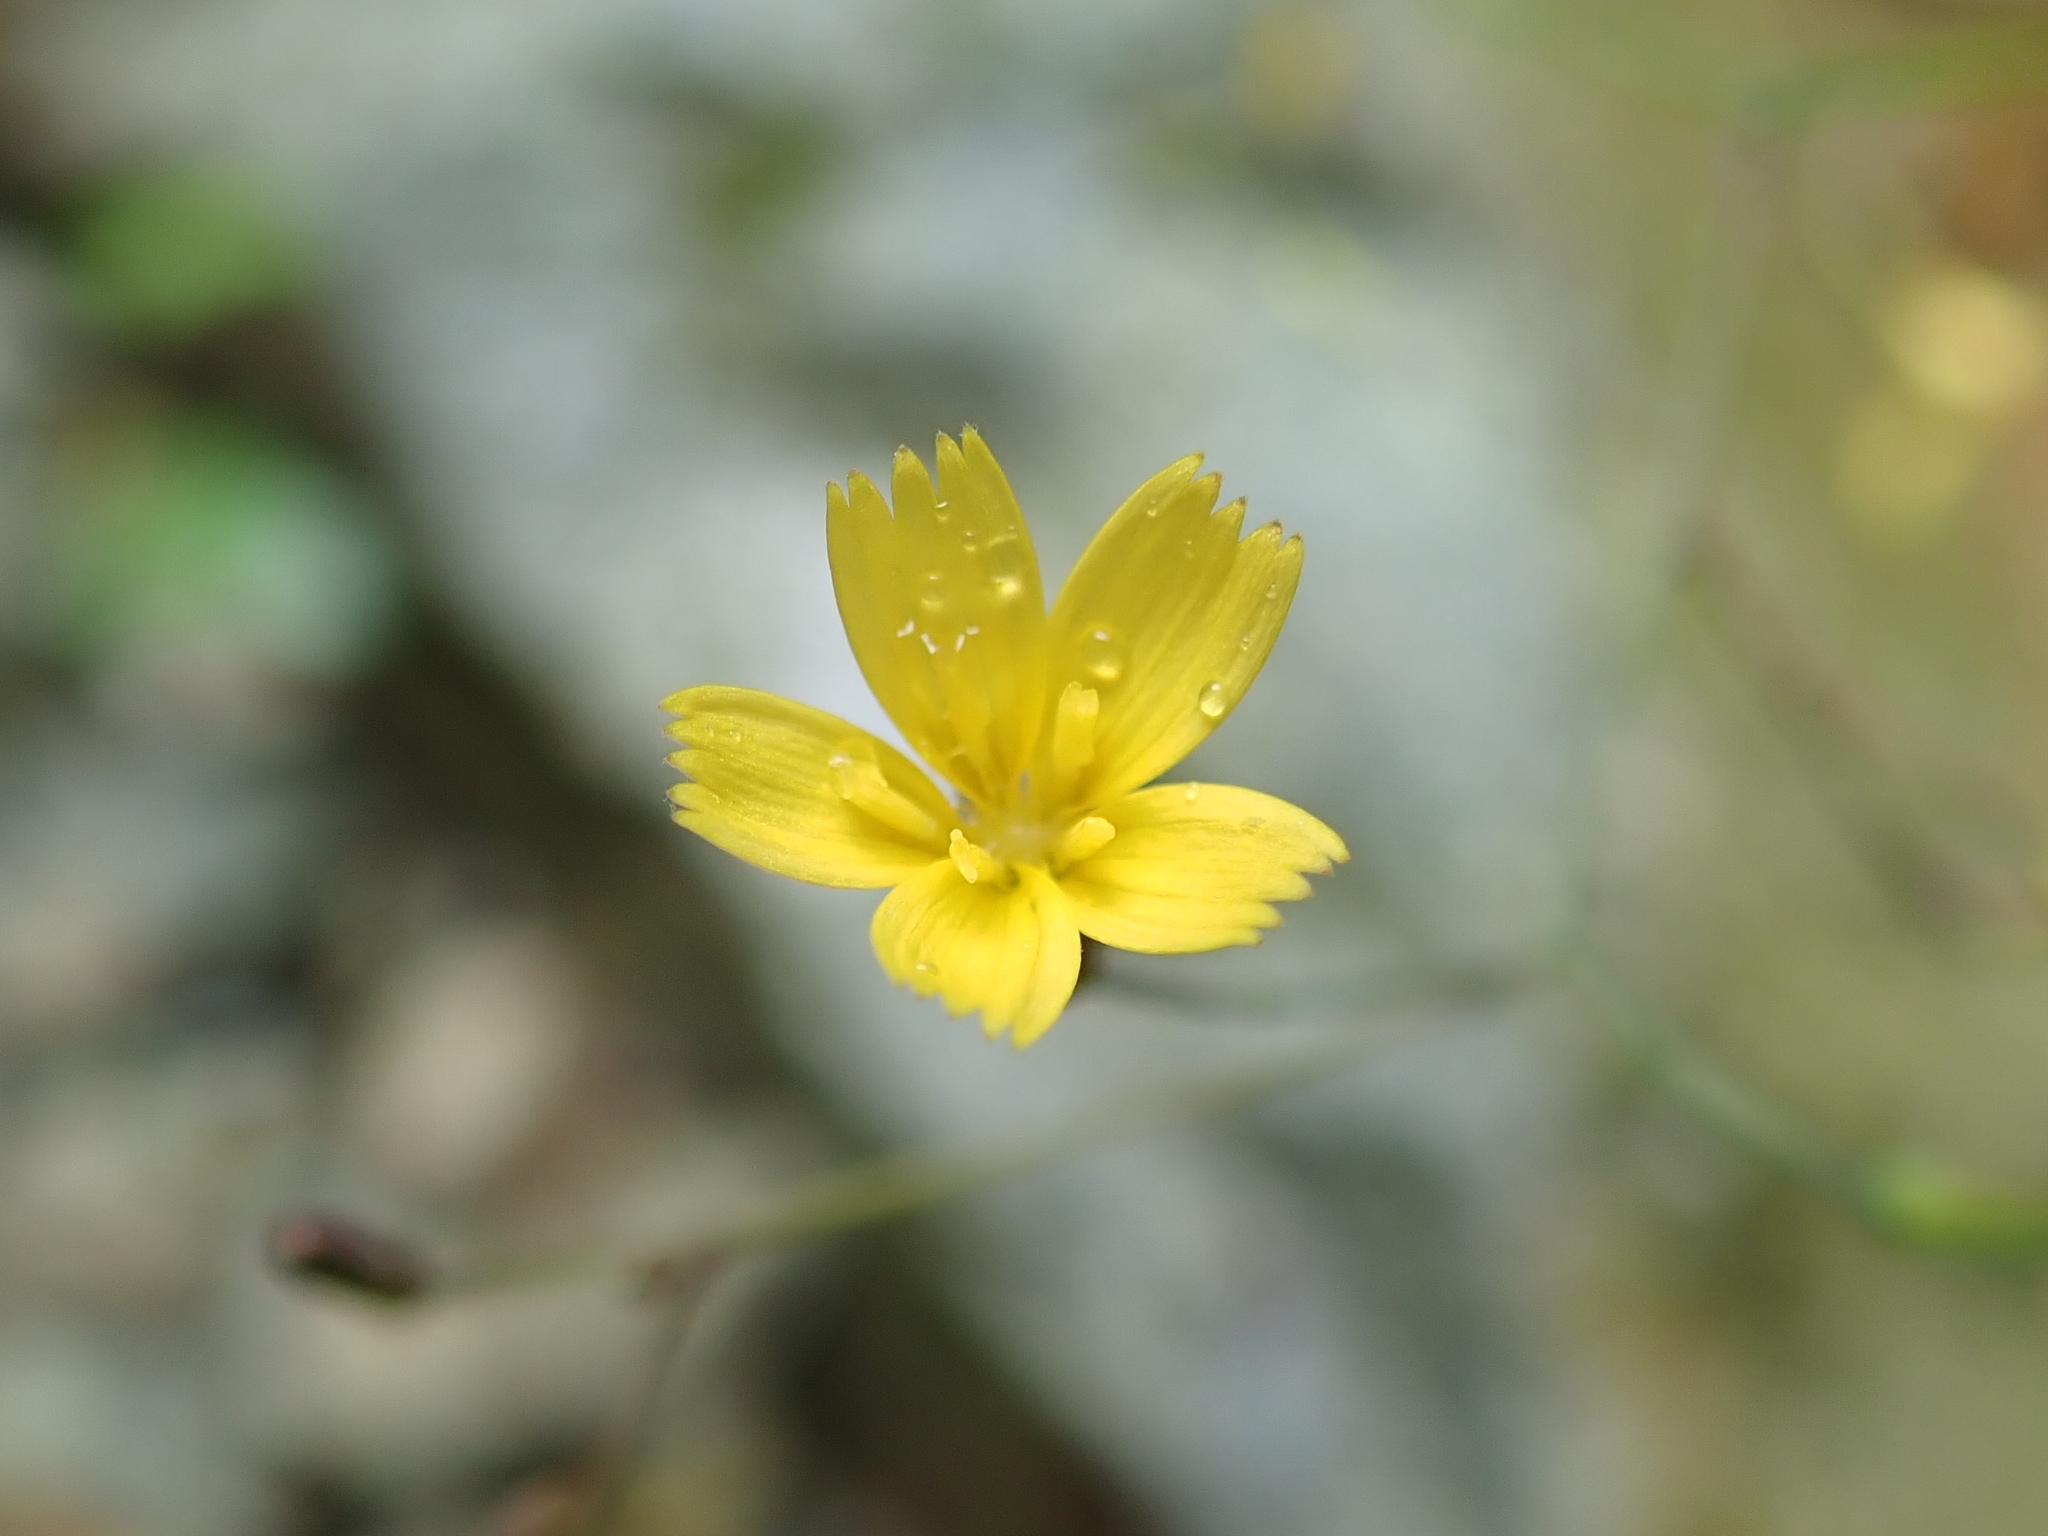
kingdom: Plantae
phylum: Tracheophyta
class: Magnoliopsida
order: Asterales
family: Asteraceae
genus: Mycelis
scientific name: Mycelis muralis
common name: Wall lettuce
